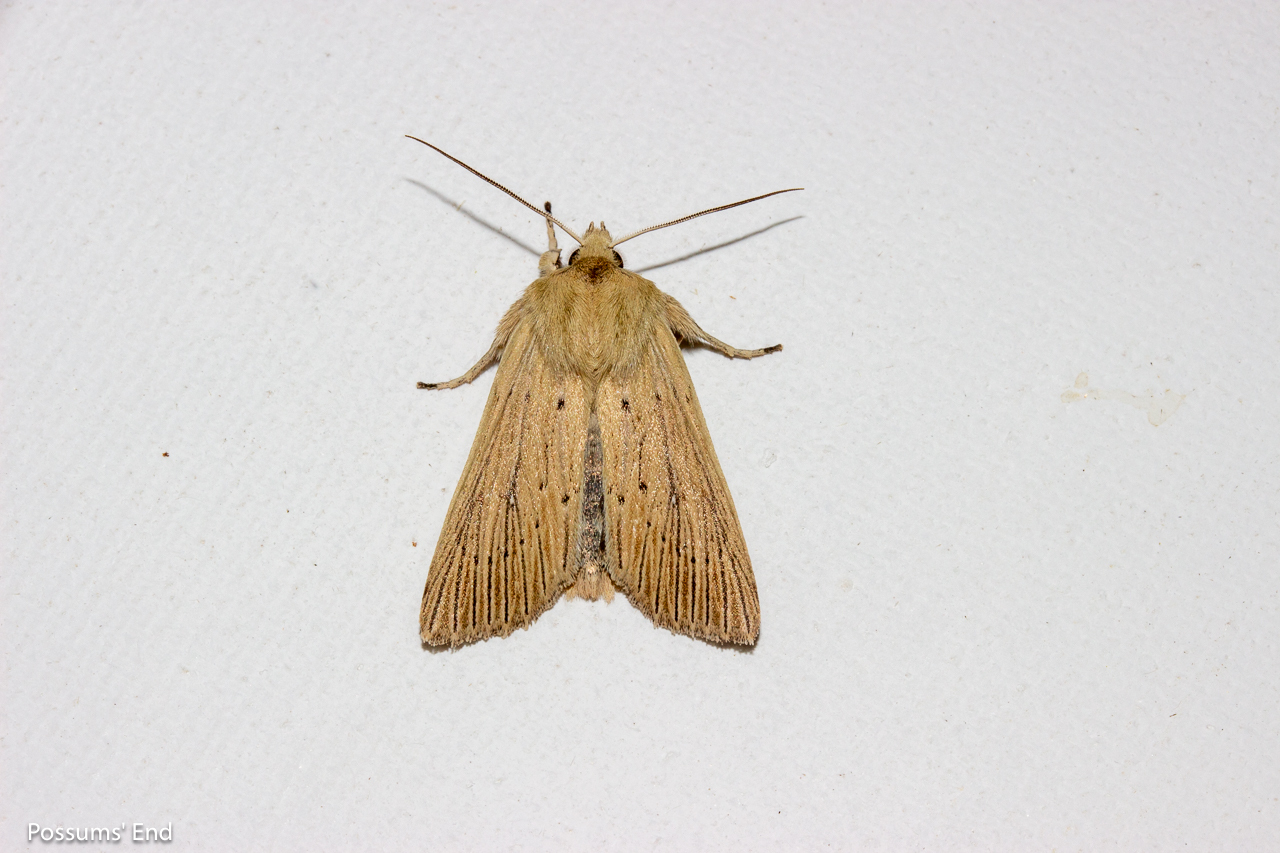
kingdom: Animalia
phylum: Arthropoda
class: Insecta
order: Lepidoptera
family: Noctuidae
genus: Ichneutica
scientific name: Ichneutica arotis
